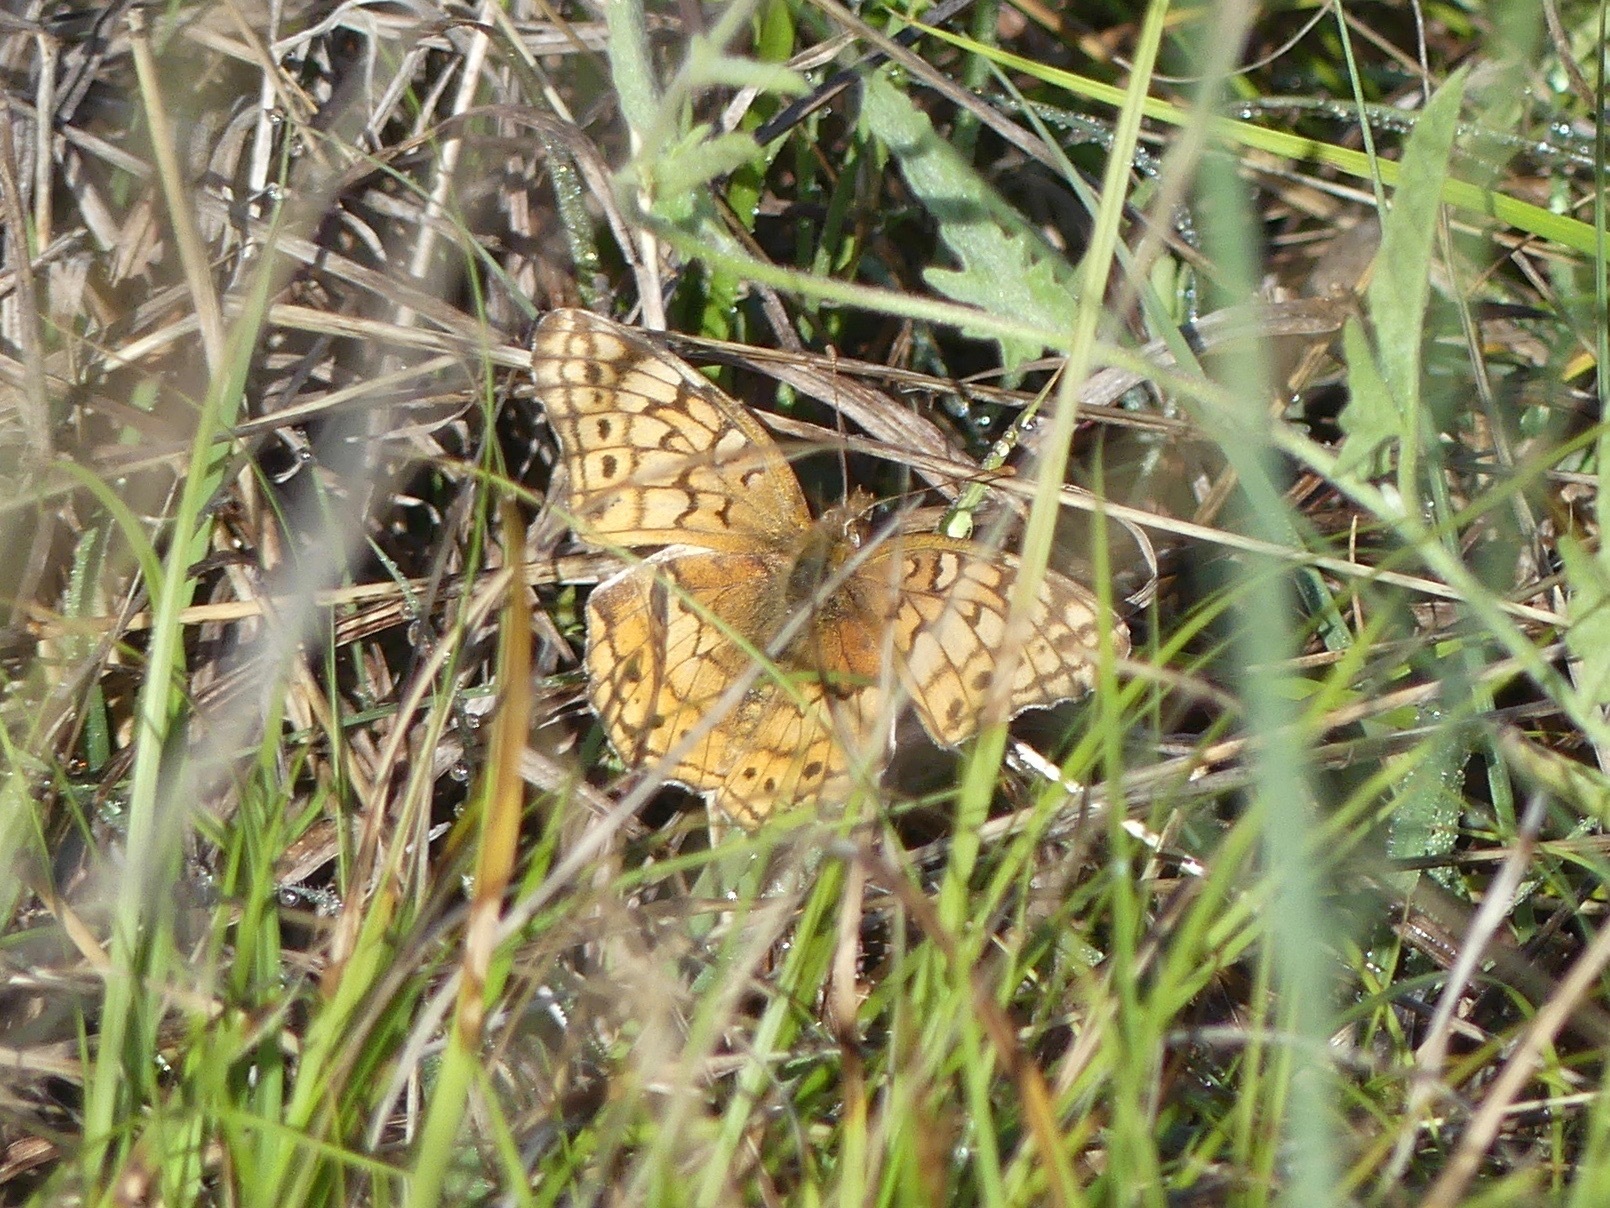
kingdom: Animalia
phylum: Arthropoda
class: Insecta
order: Lepidoptera
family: Nymphalidae
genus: Euptoieta
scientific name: Euptoieta claudia
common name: Variegated fritillary
